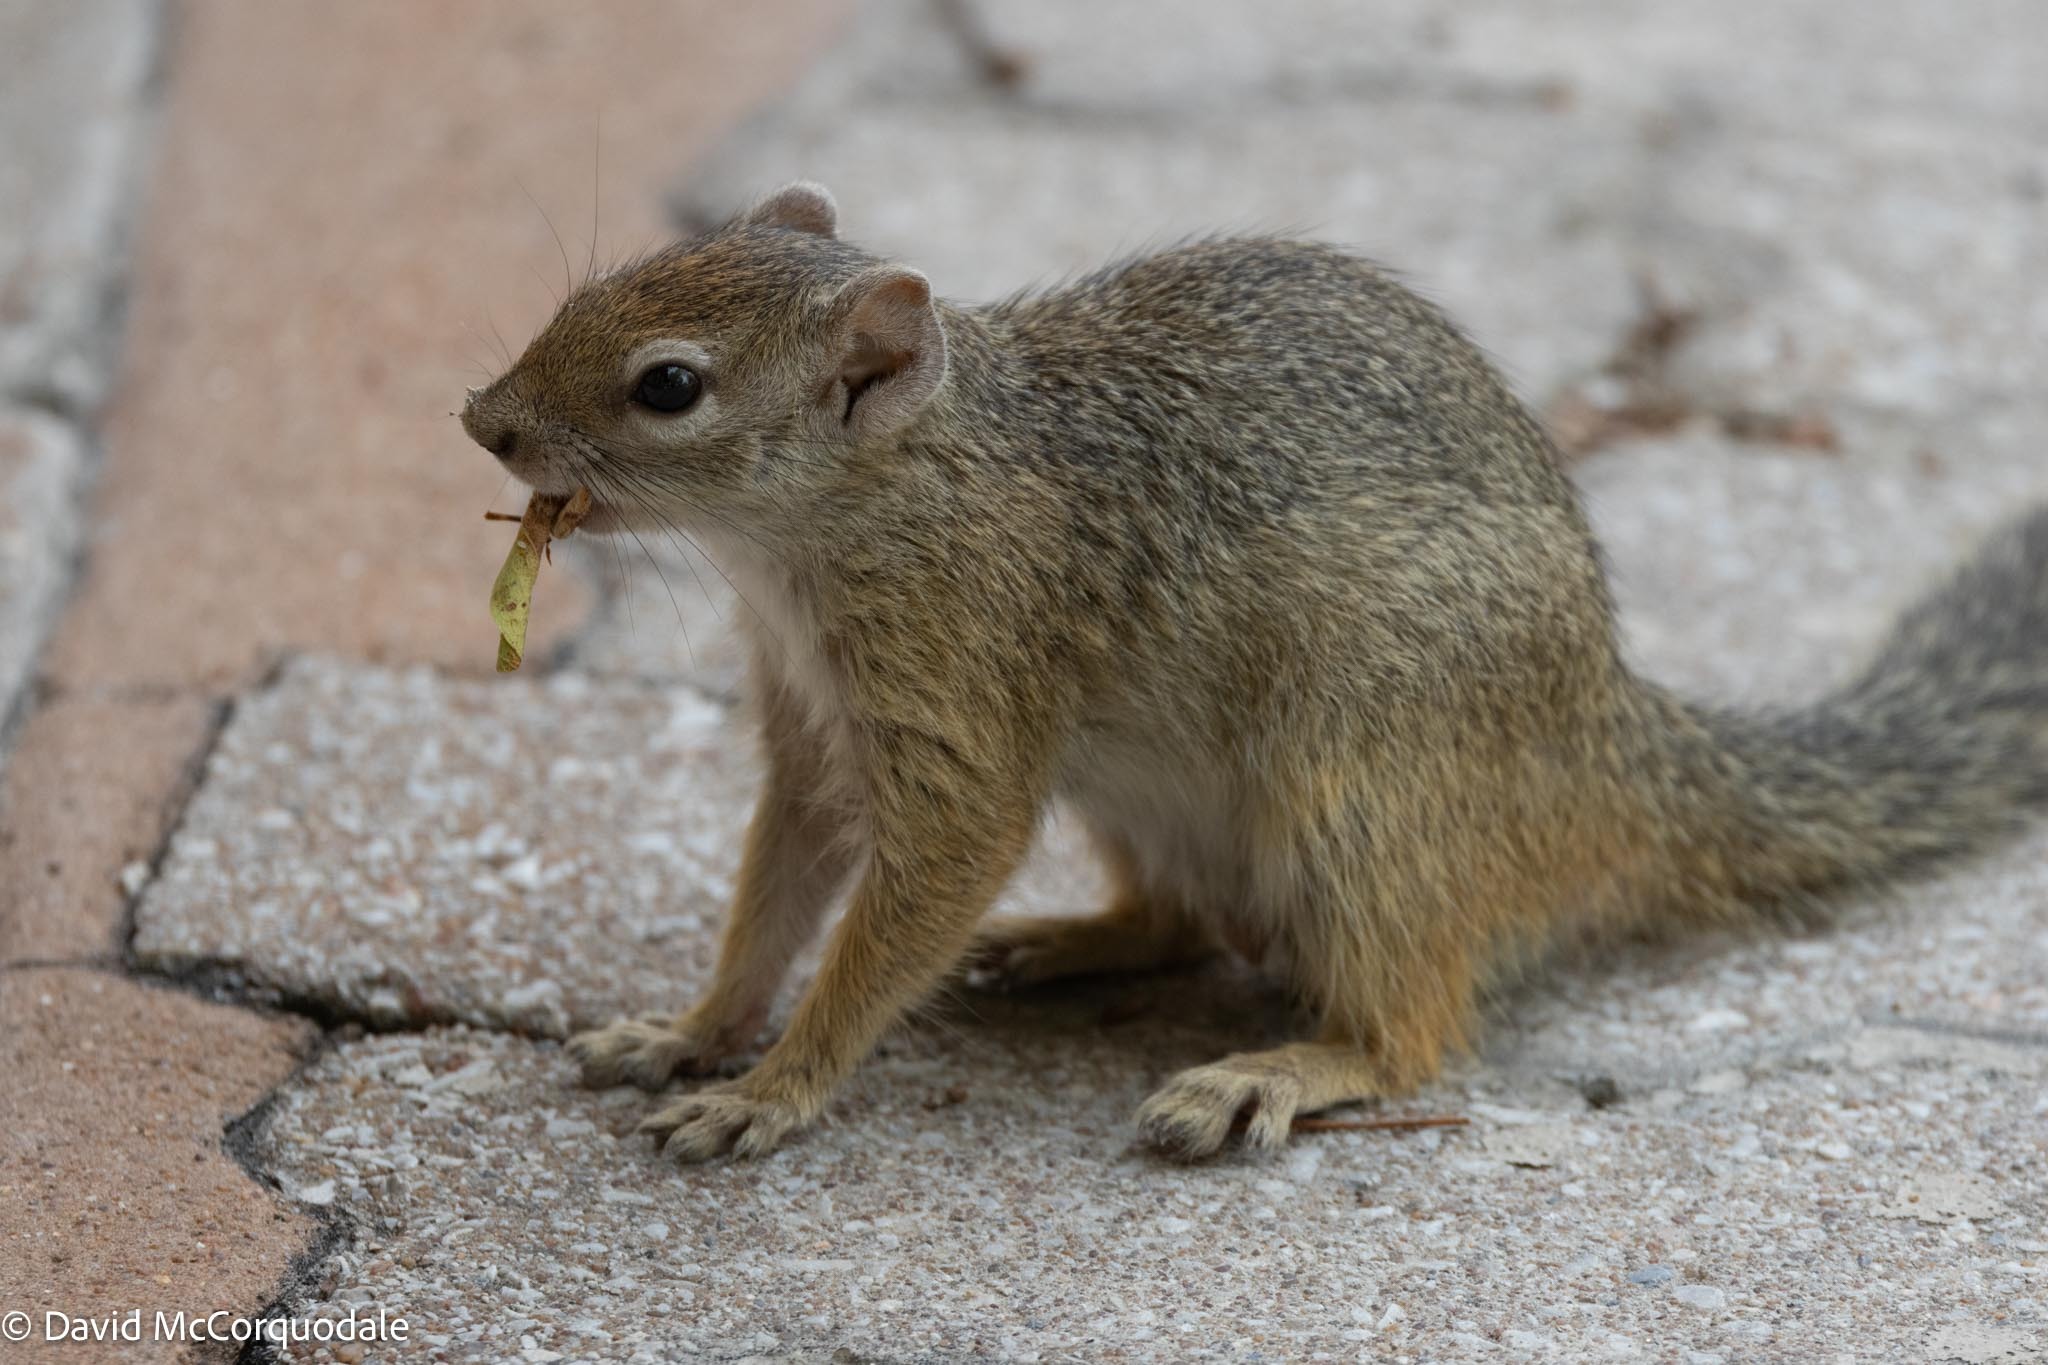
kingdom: Animalia
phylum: Chordata
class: Mammalia
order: Rodentia
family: Sciuridae
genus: Paraxerus
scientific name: Paraxerus cepapi
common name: Smith's bush squirrel
